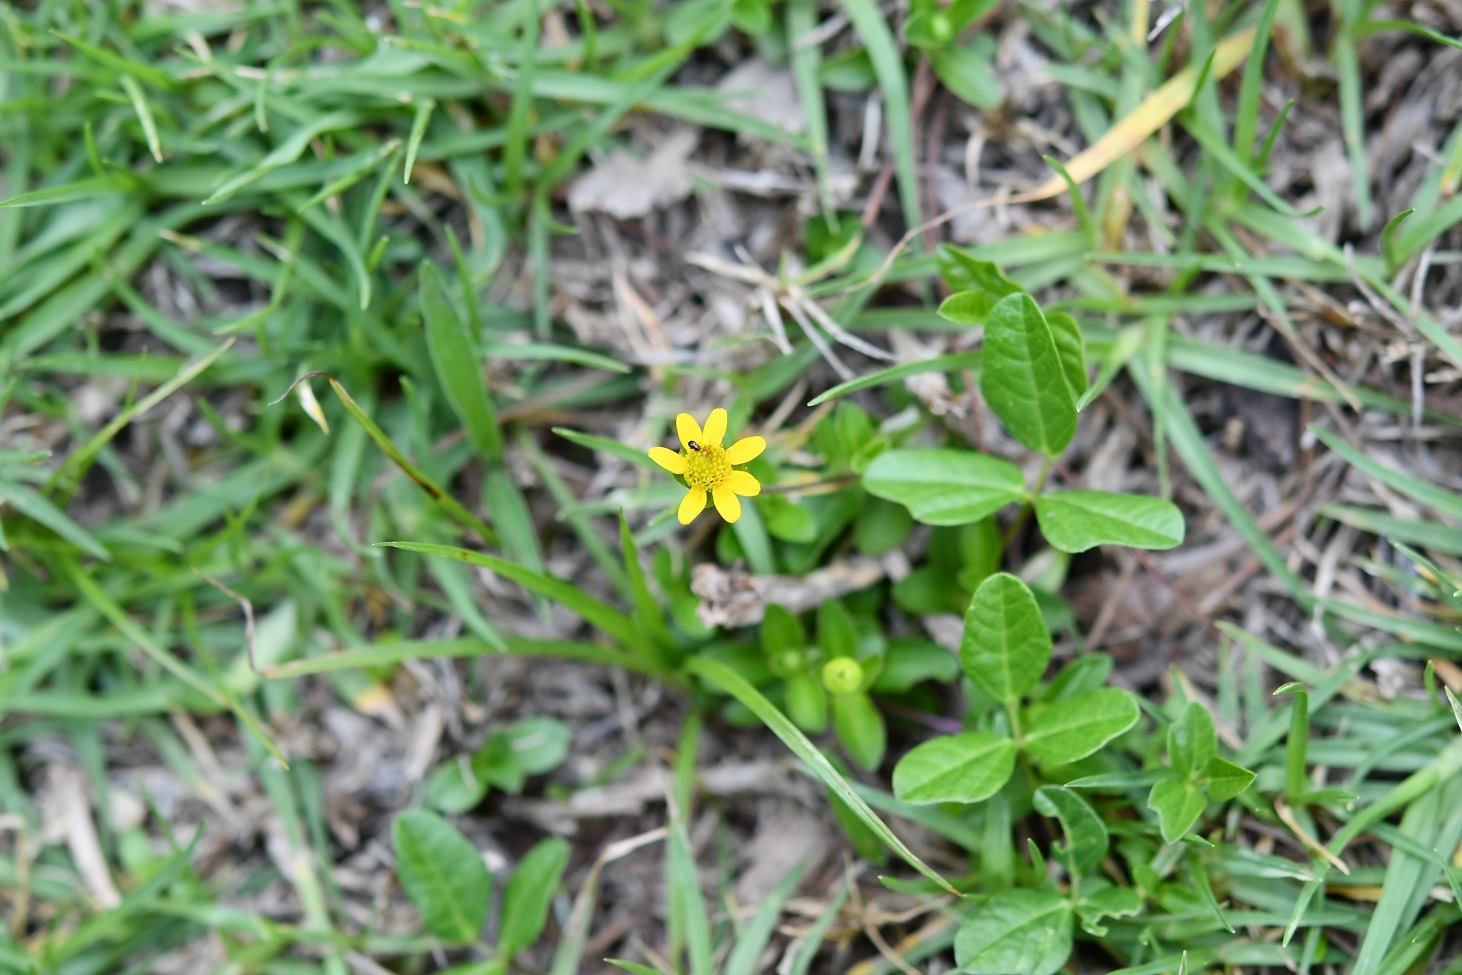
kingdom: Plantae
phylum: Tracheophyta
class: Magnoliopsida
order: Asterales
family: Asteraceae
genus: Melampodium
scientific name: Melampodium montanum
